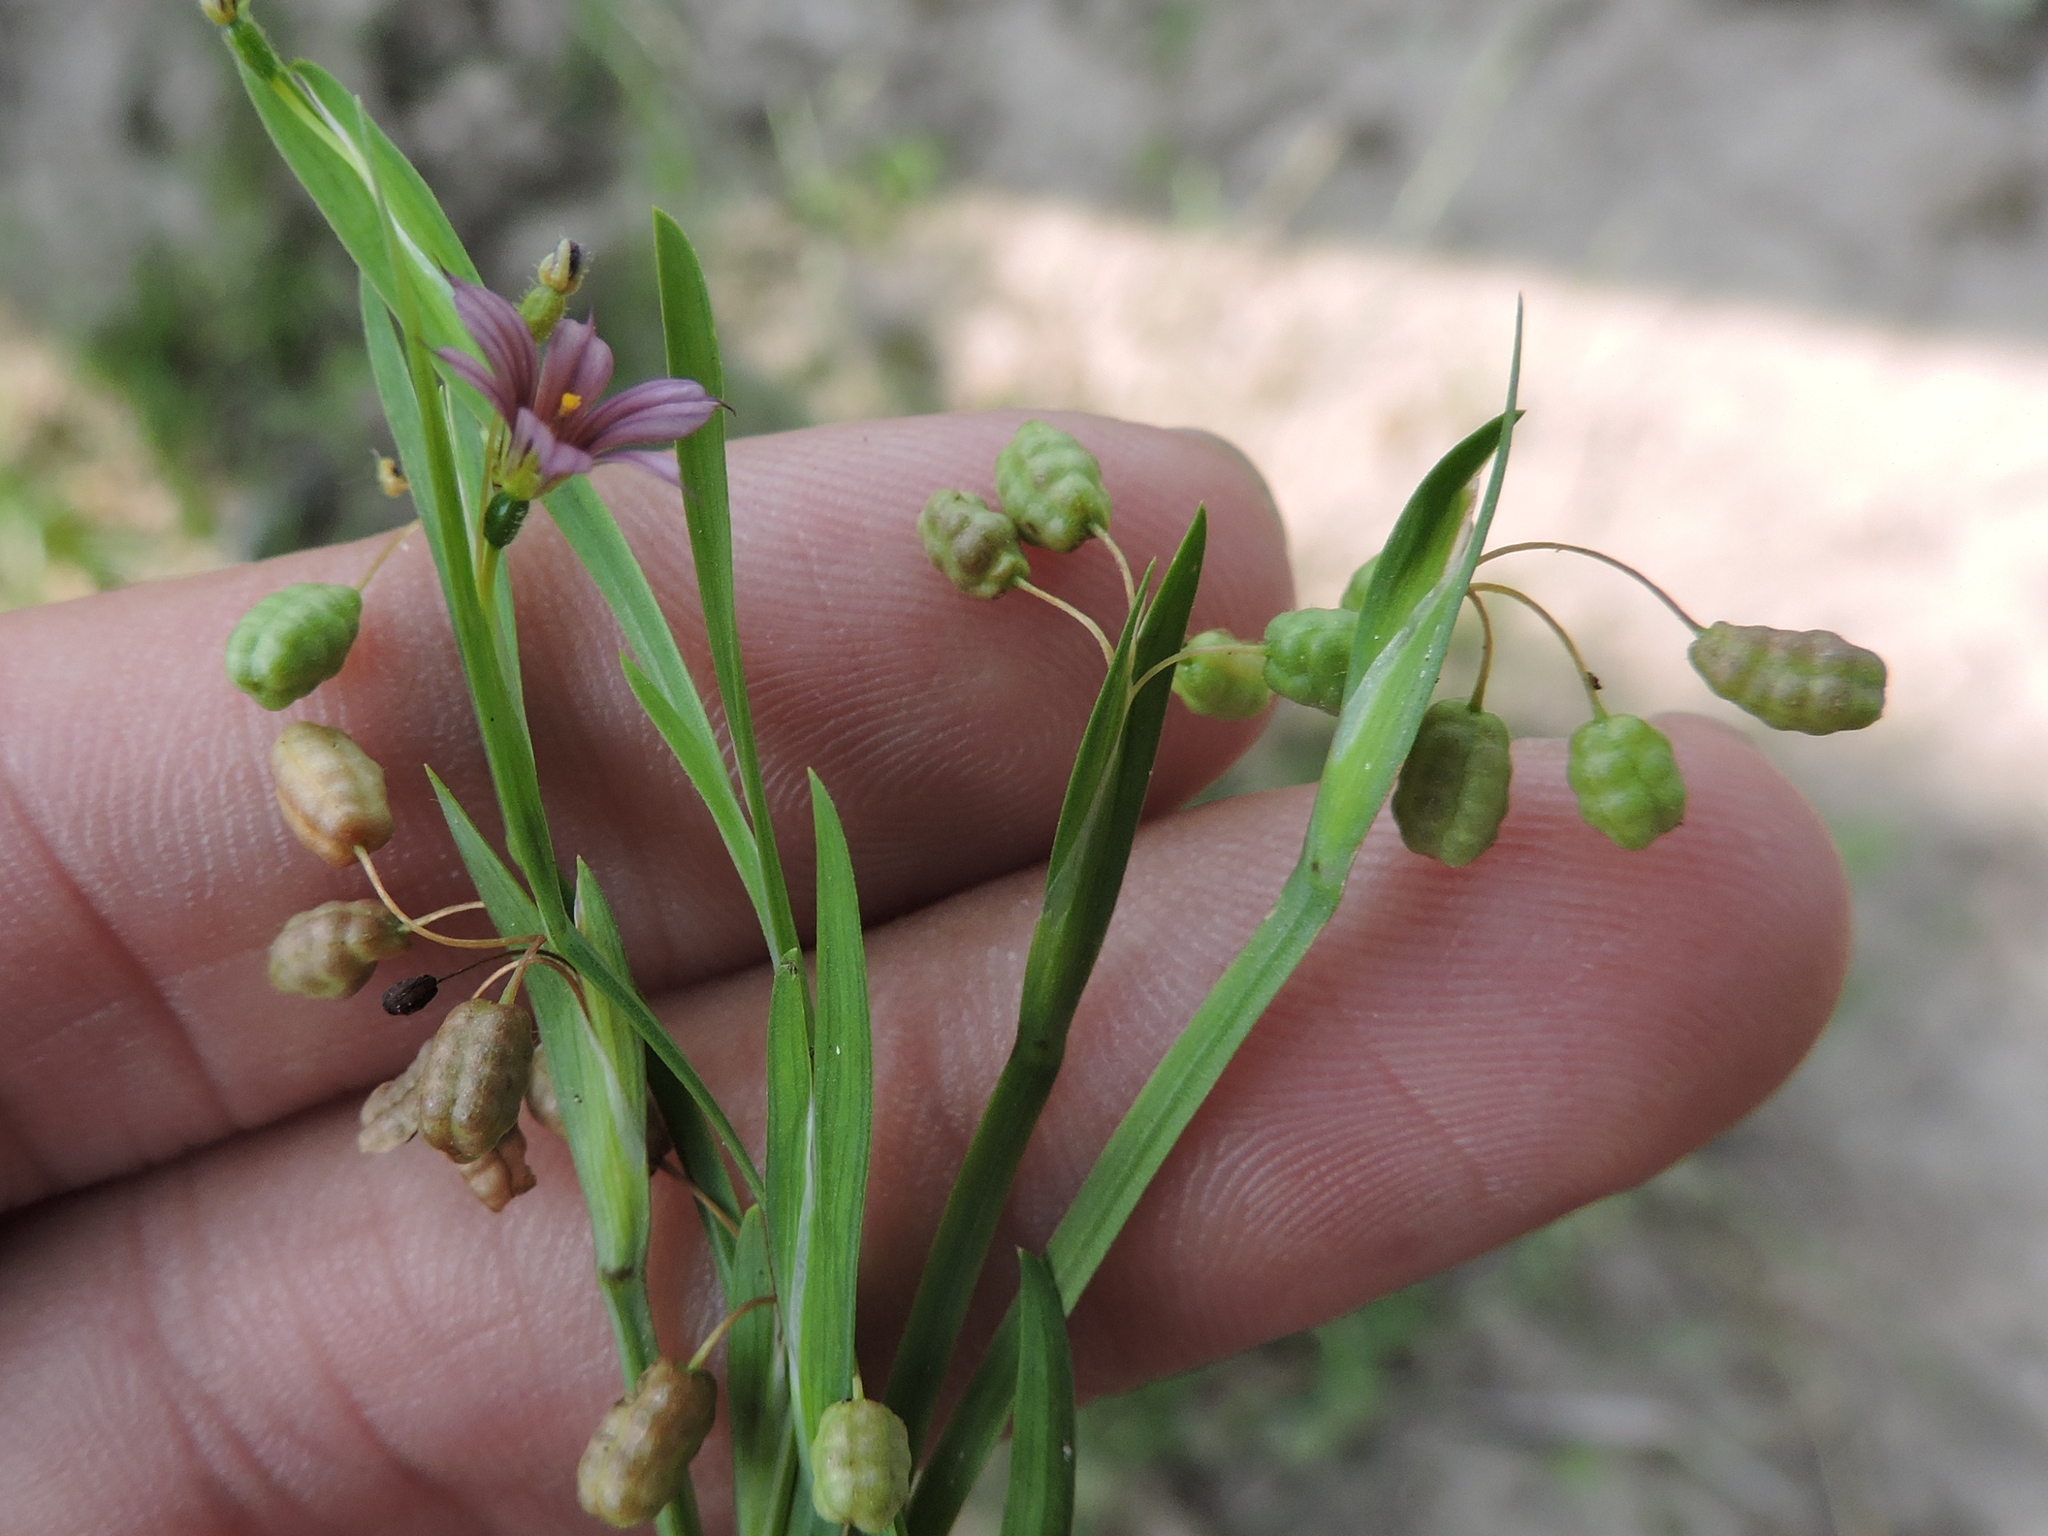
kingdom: Plantae
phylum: Tracheophyta
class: Liliopsida
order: Asparagales
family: Iridaceae
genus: Sisyrinchium
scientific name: Sisyrinchium minus
